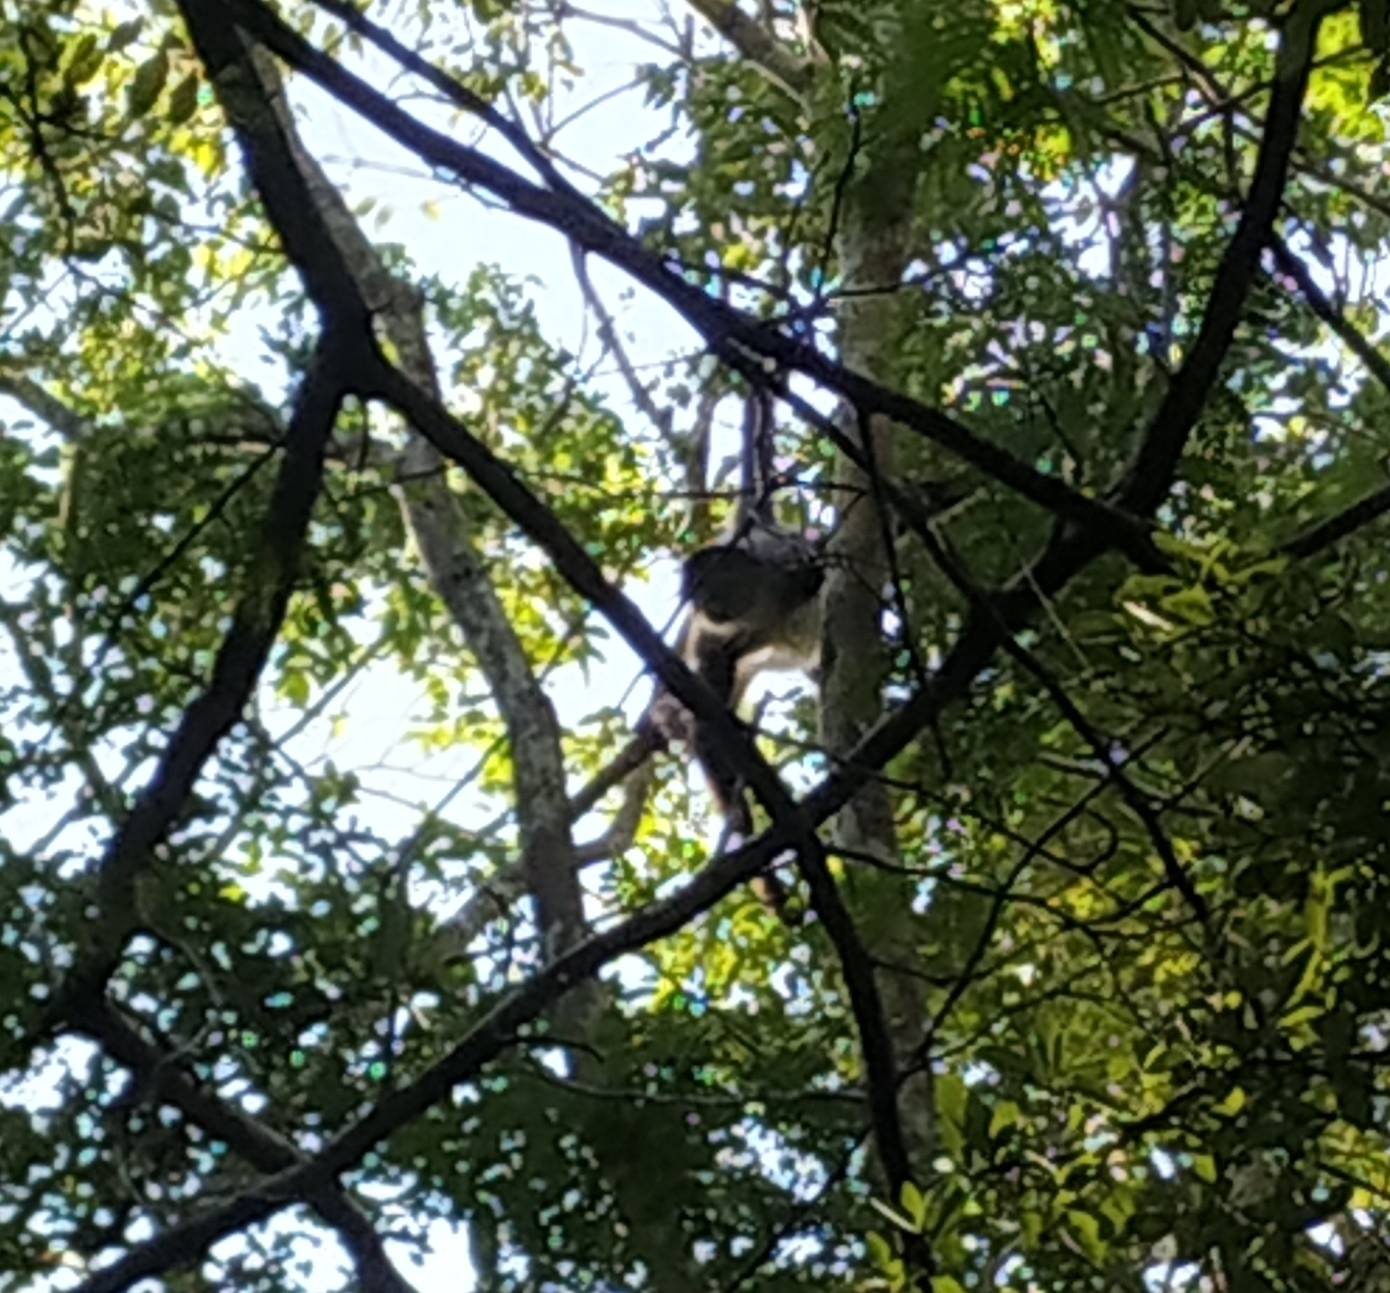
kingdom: Animalia
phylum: Chordata
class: Mammalia
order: Primates
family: Atelidae
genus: Ateles
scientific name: Ateles geoffroyi
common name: Black-handed spider monkey
